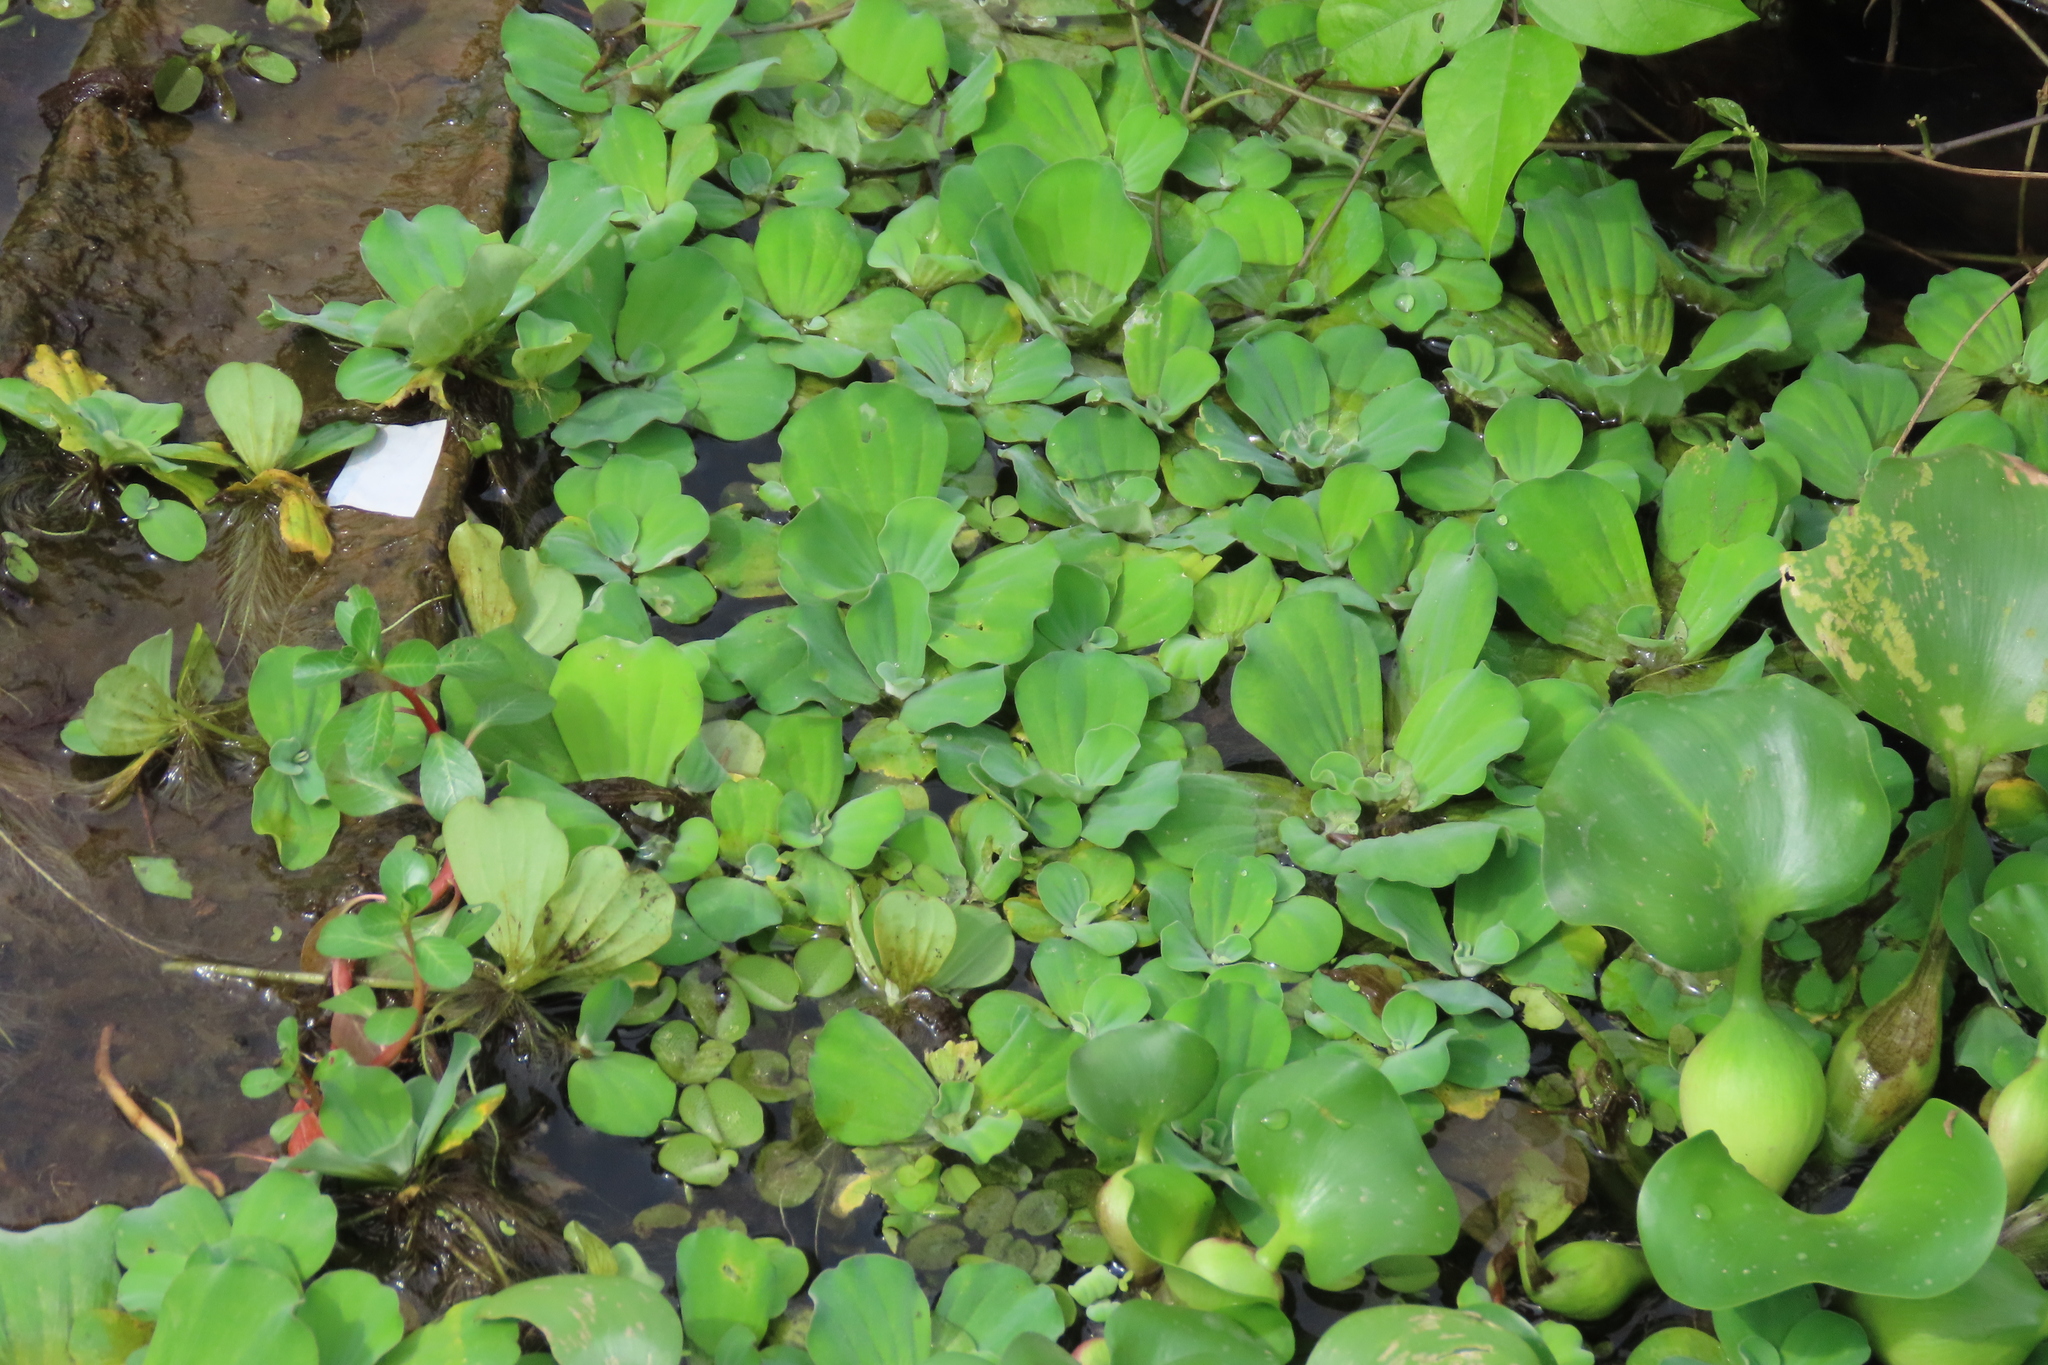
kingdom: Plantae
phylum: Tracheophyta
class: Liliopsida
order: Alismatales
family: Araceae
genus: Pistia
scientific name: Pistia stratiotes
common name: Water lettuce
